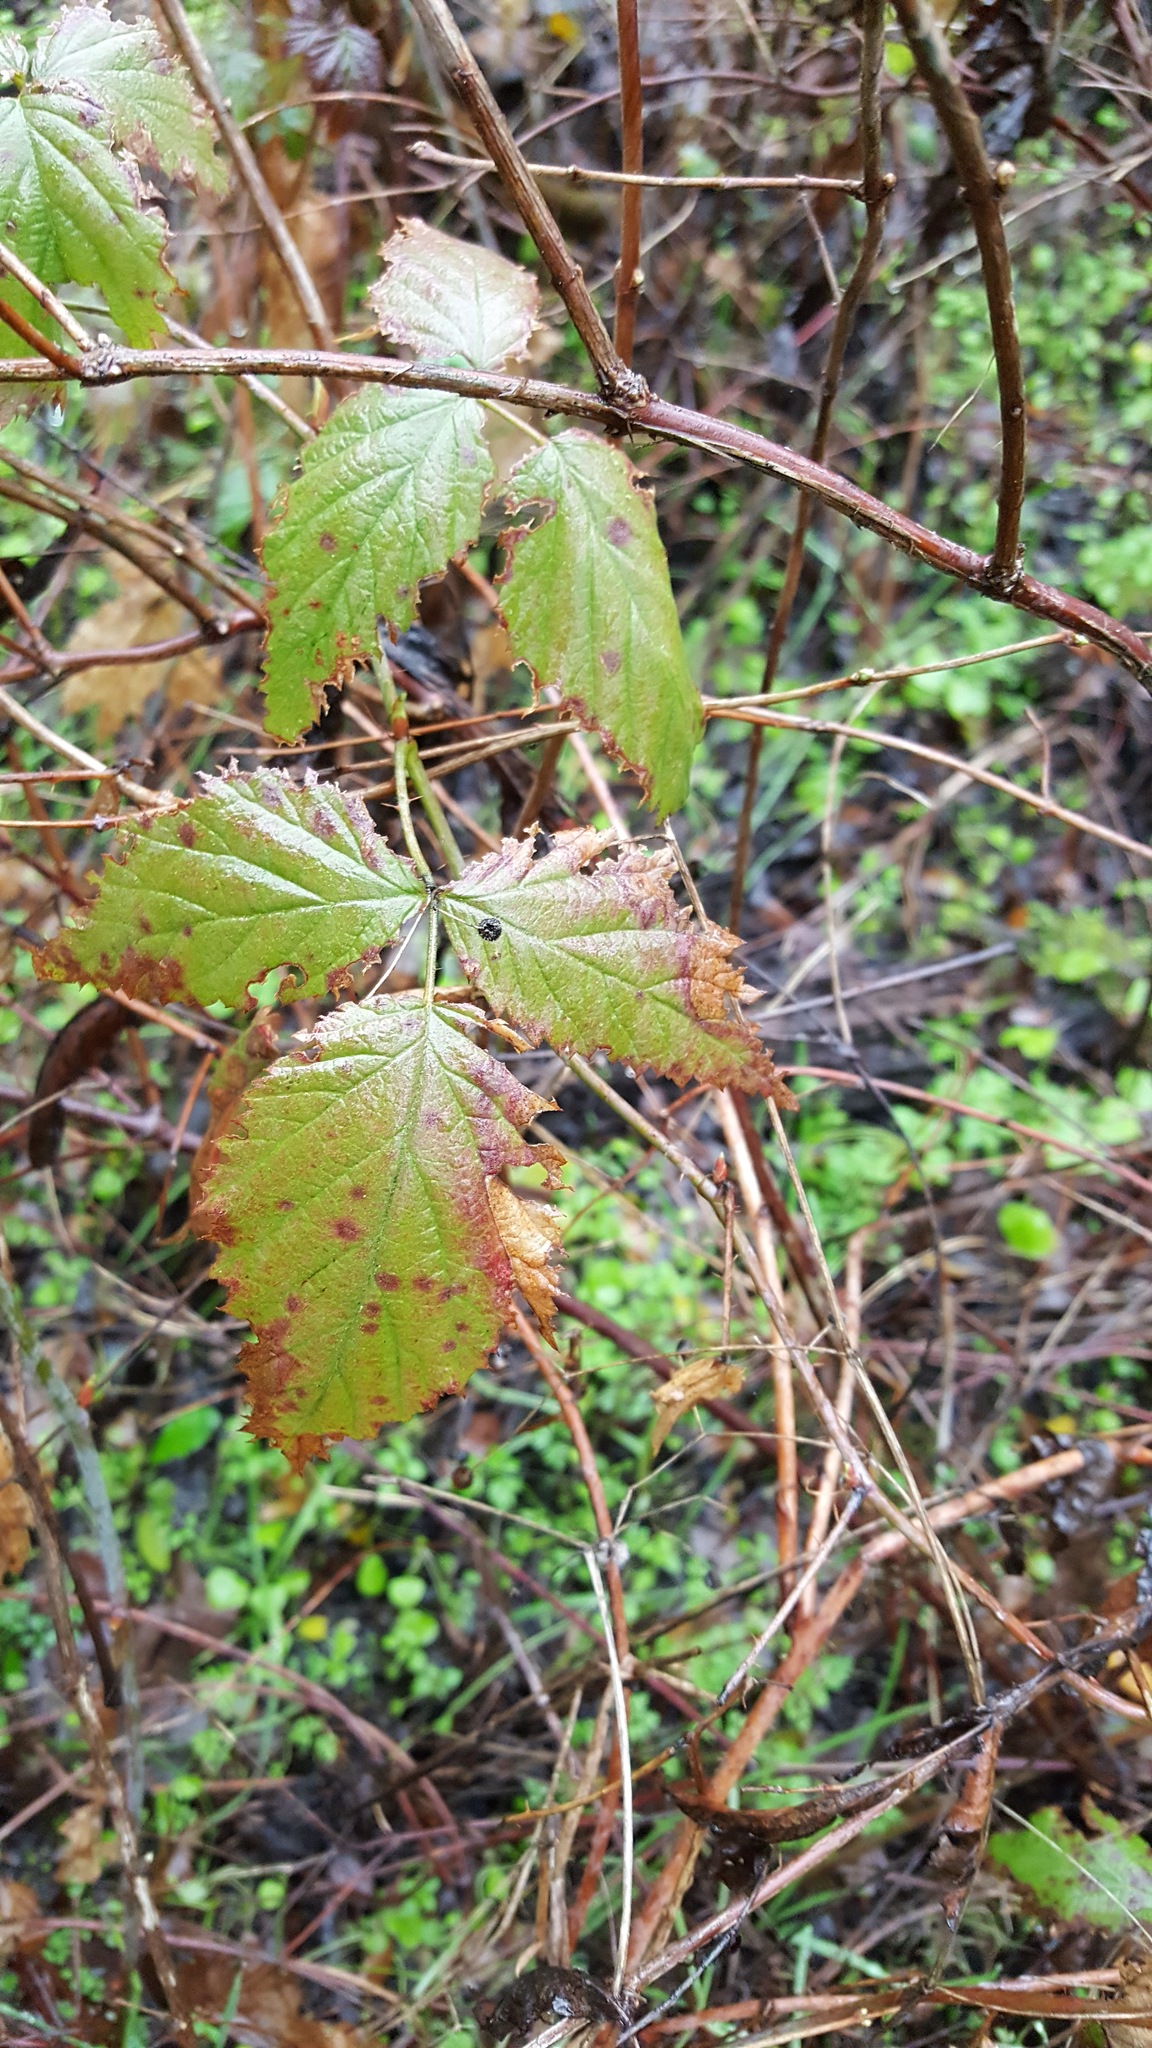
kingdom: Plantae
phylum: Tracheophyta
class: Magnoliopsida
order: Rosales
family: Rosaceae
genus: Rubus
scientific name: Rubus ursinus
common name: Pacific blackberry
